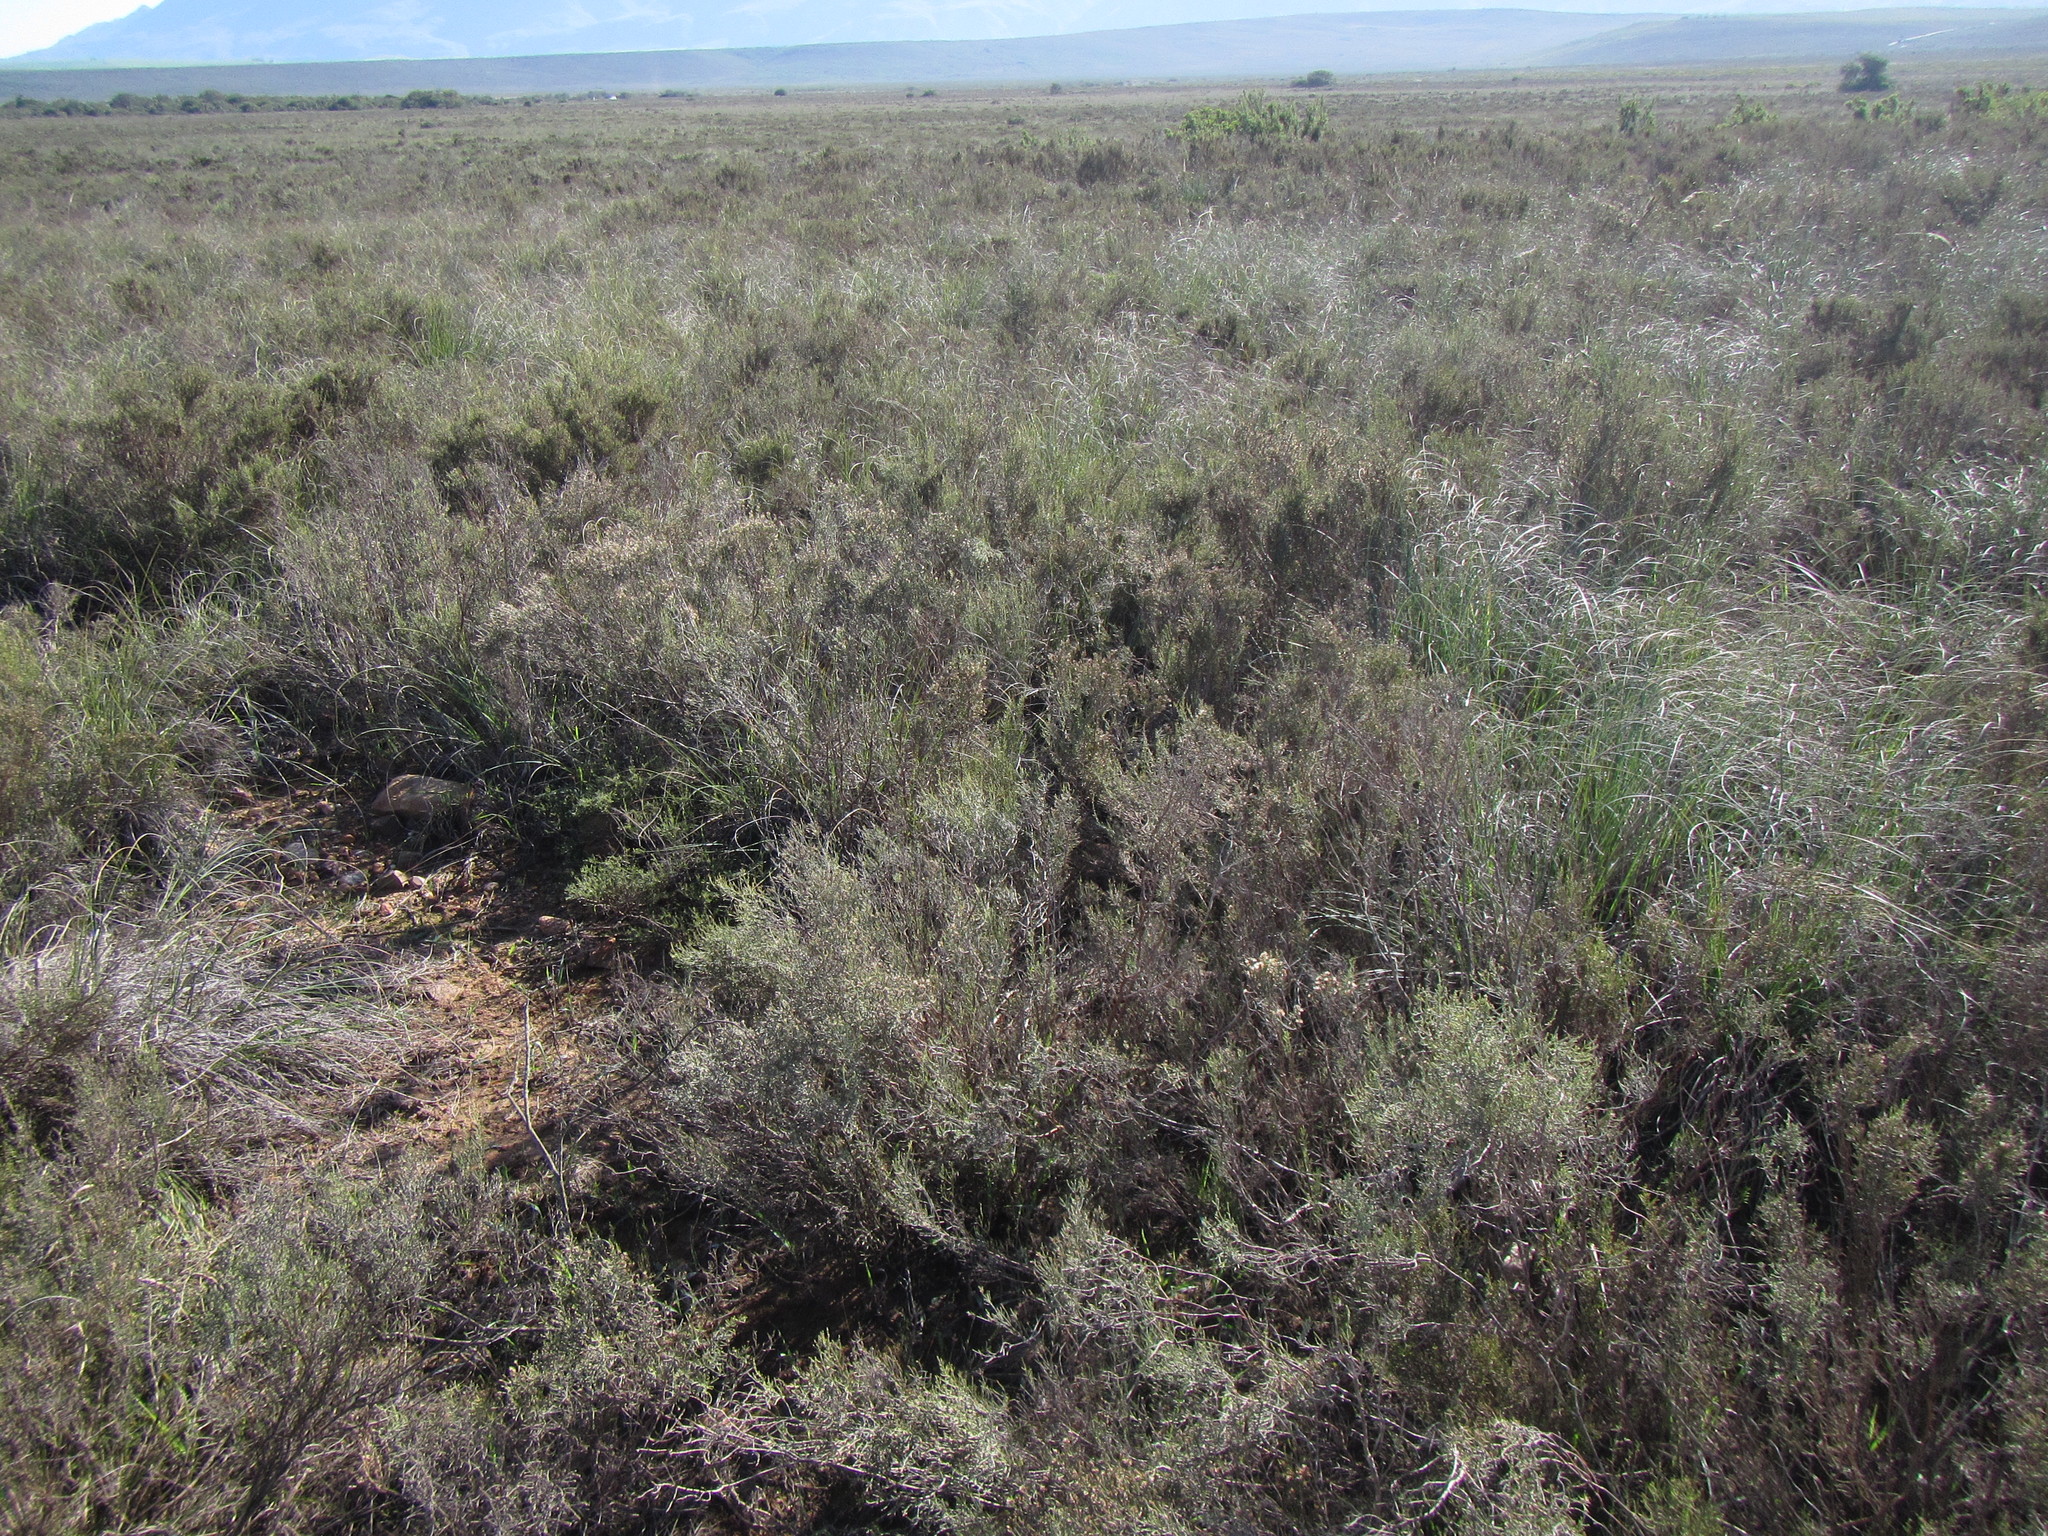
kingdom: Plantae
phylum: Tracheophyta
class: Magnoliopsida
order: Asterales
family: Asteraceae
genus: Dicerothamnus
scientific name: Dicerothamnus rhinocerotis
